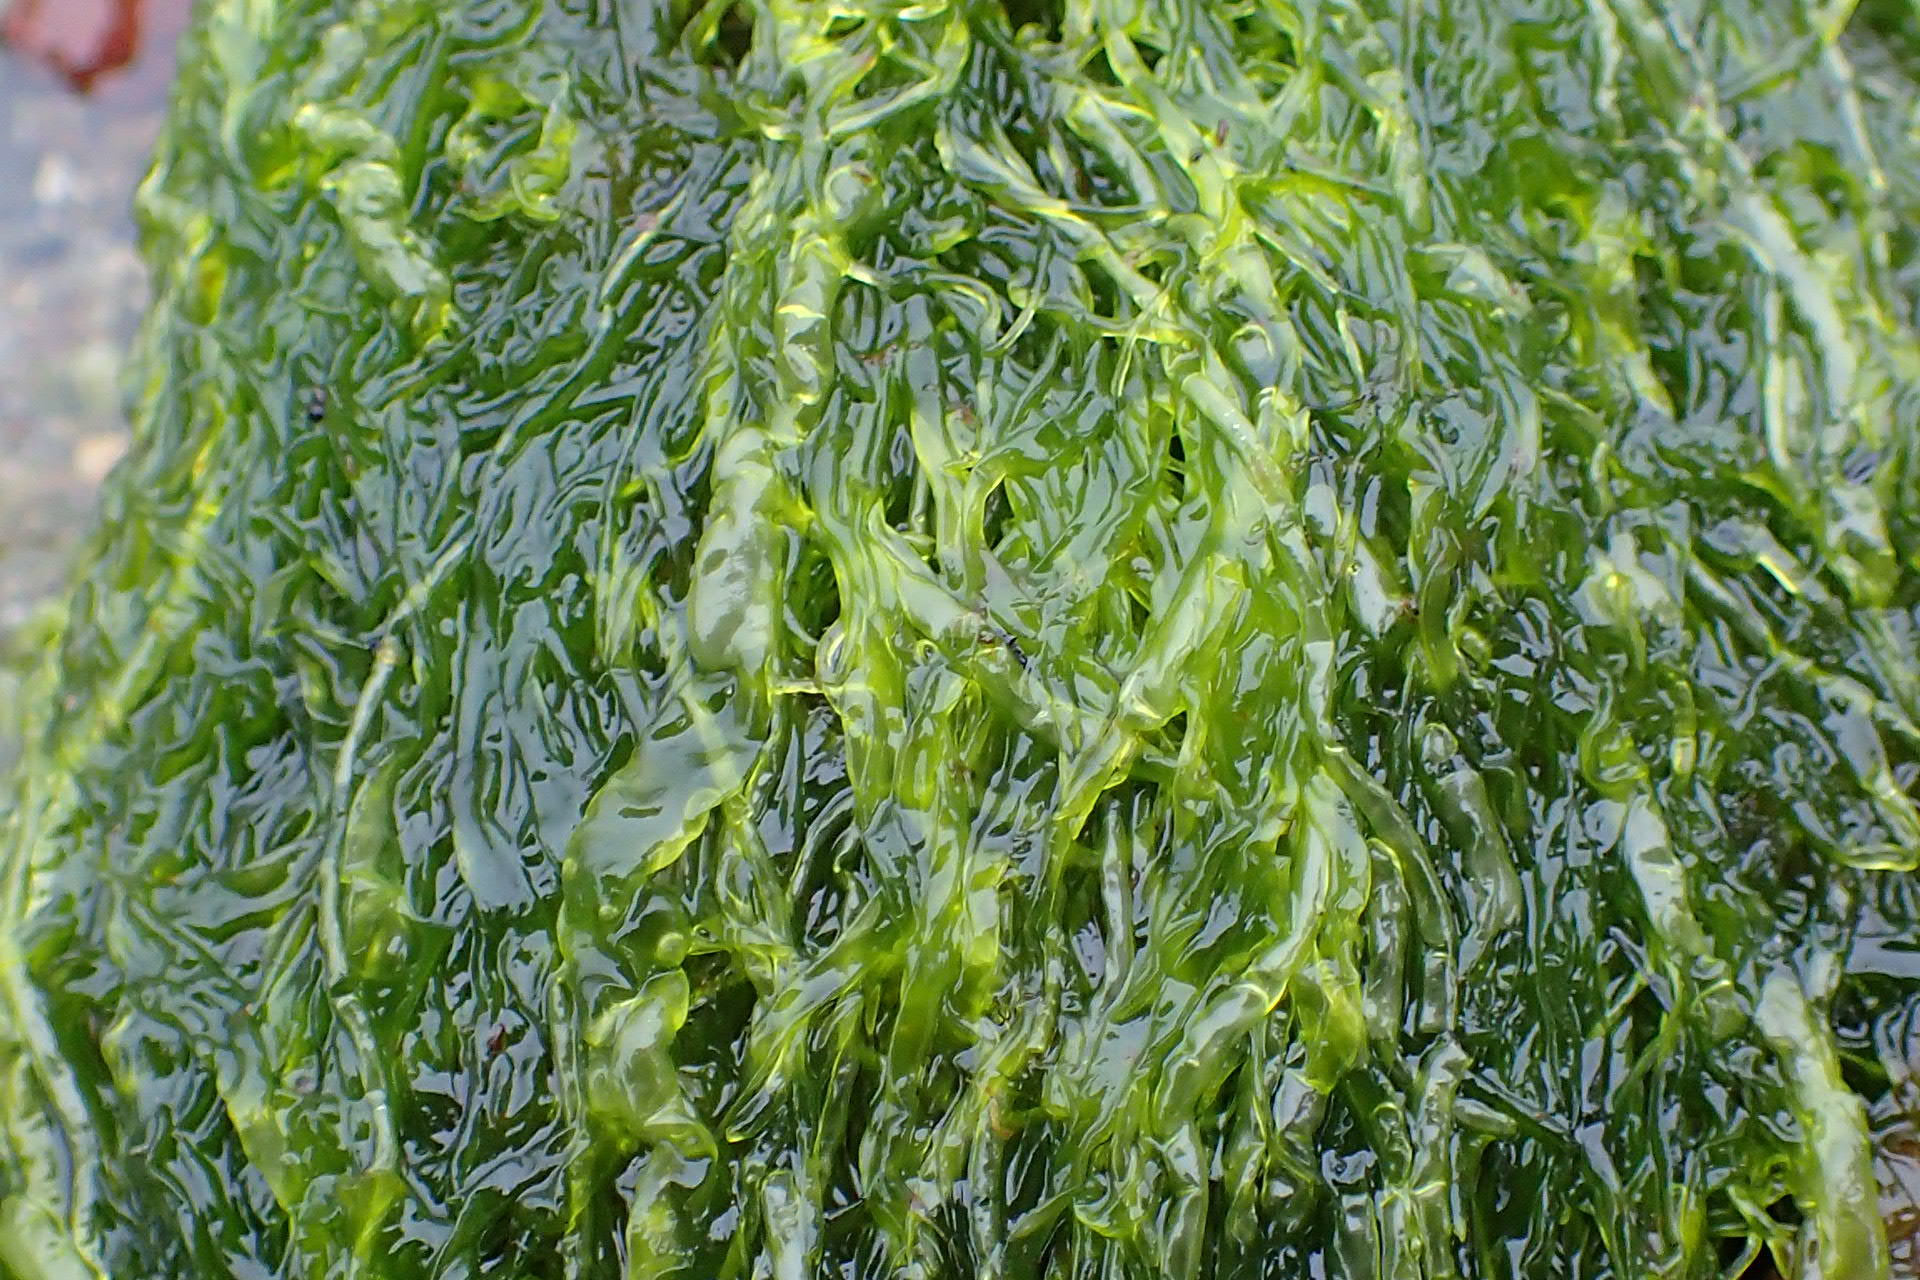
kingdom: Plantae
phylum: Chlorophyta
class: Ulvophyceae
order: Ulvales
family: Ulvaceae
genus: Ulva
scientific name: Ulva intestinalis
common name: Gut weed
